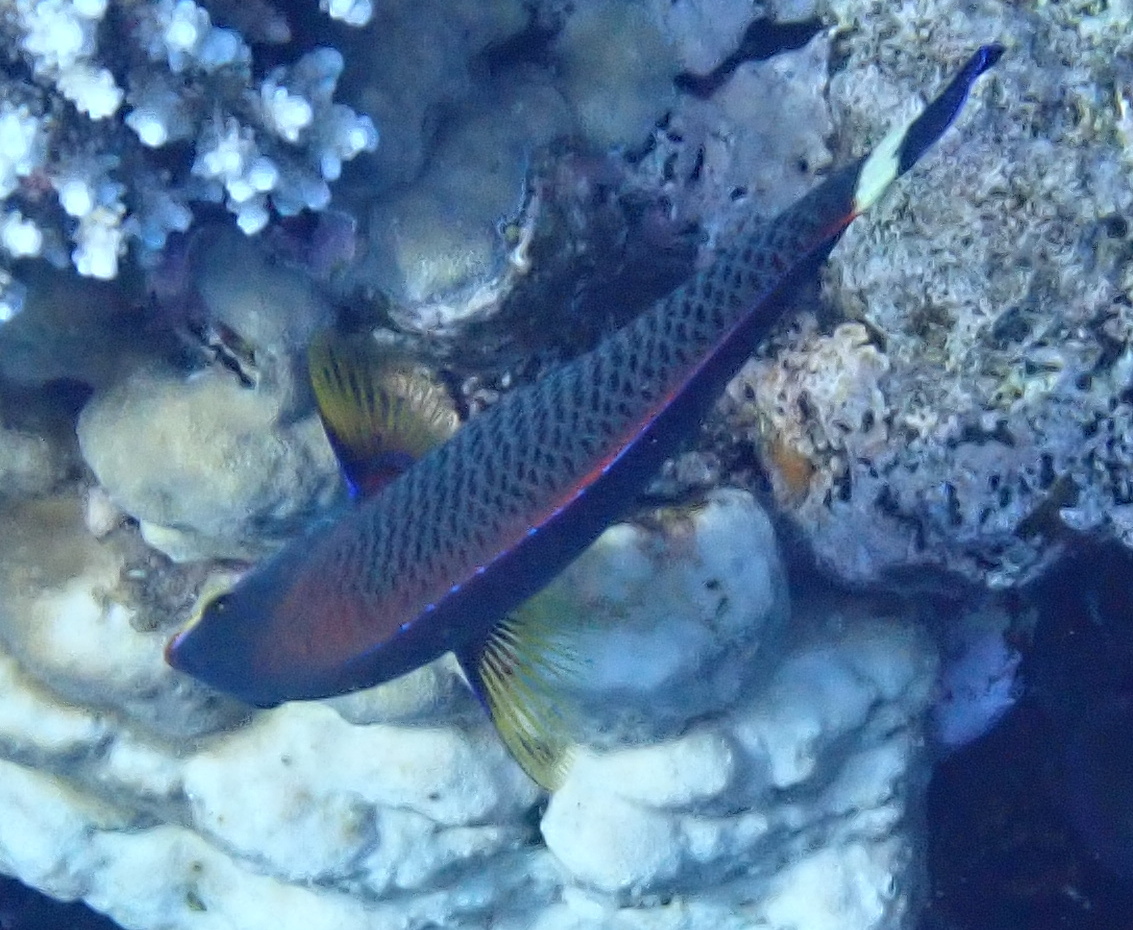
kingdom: Animalia
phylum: Chordata
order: Perciformes
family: Labridae
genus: Pseudodax
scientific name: Pseudodax moluccanus
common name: Chiseltooth wrasse
